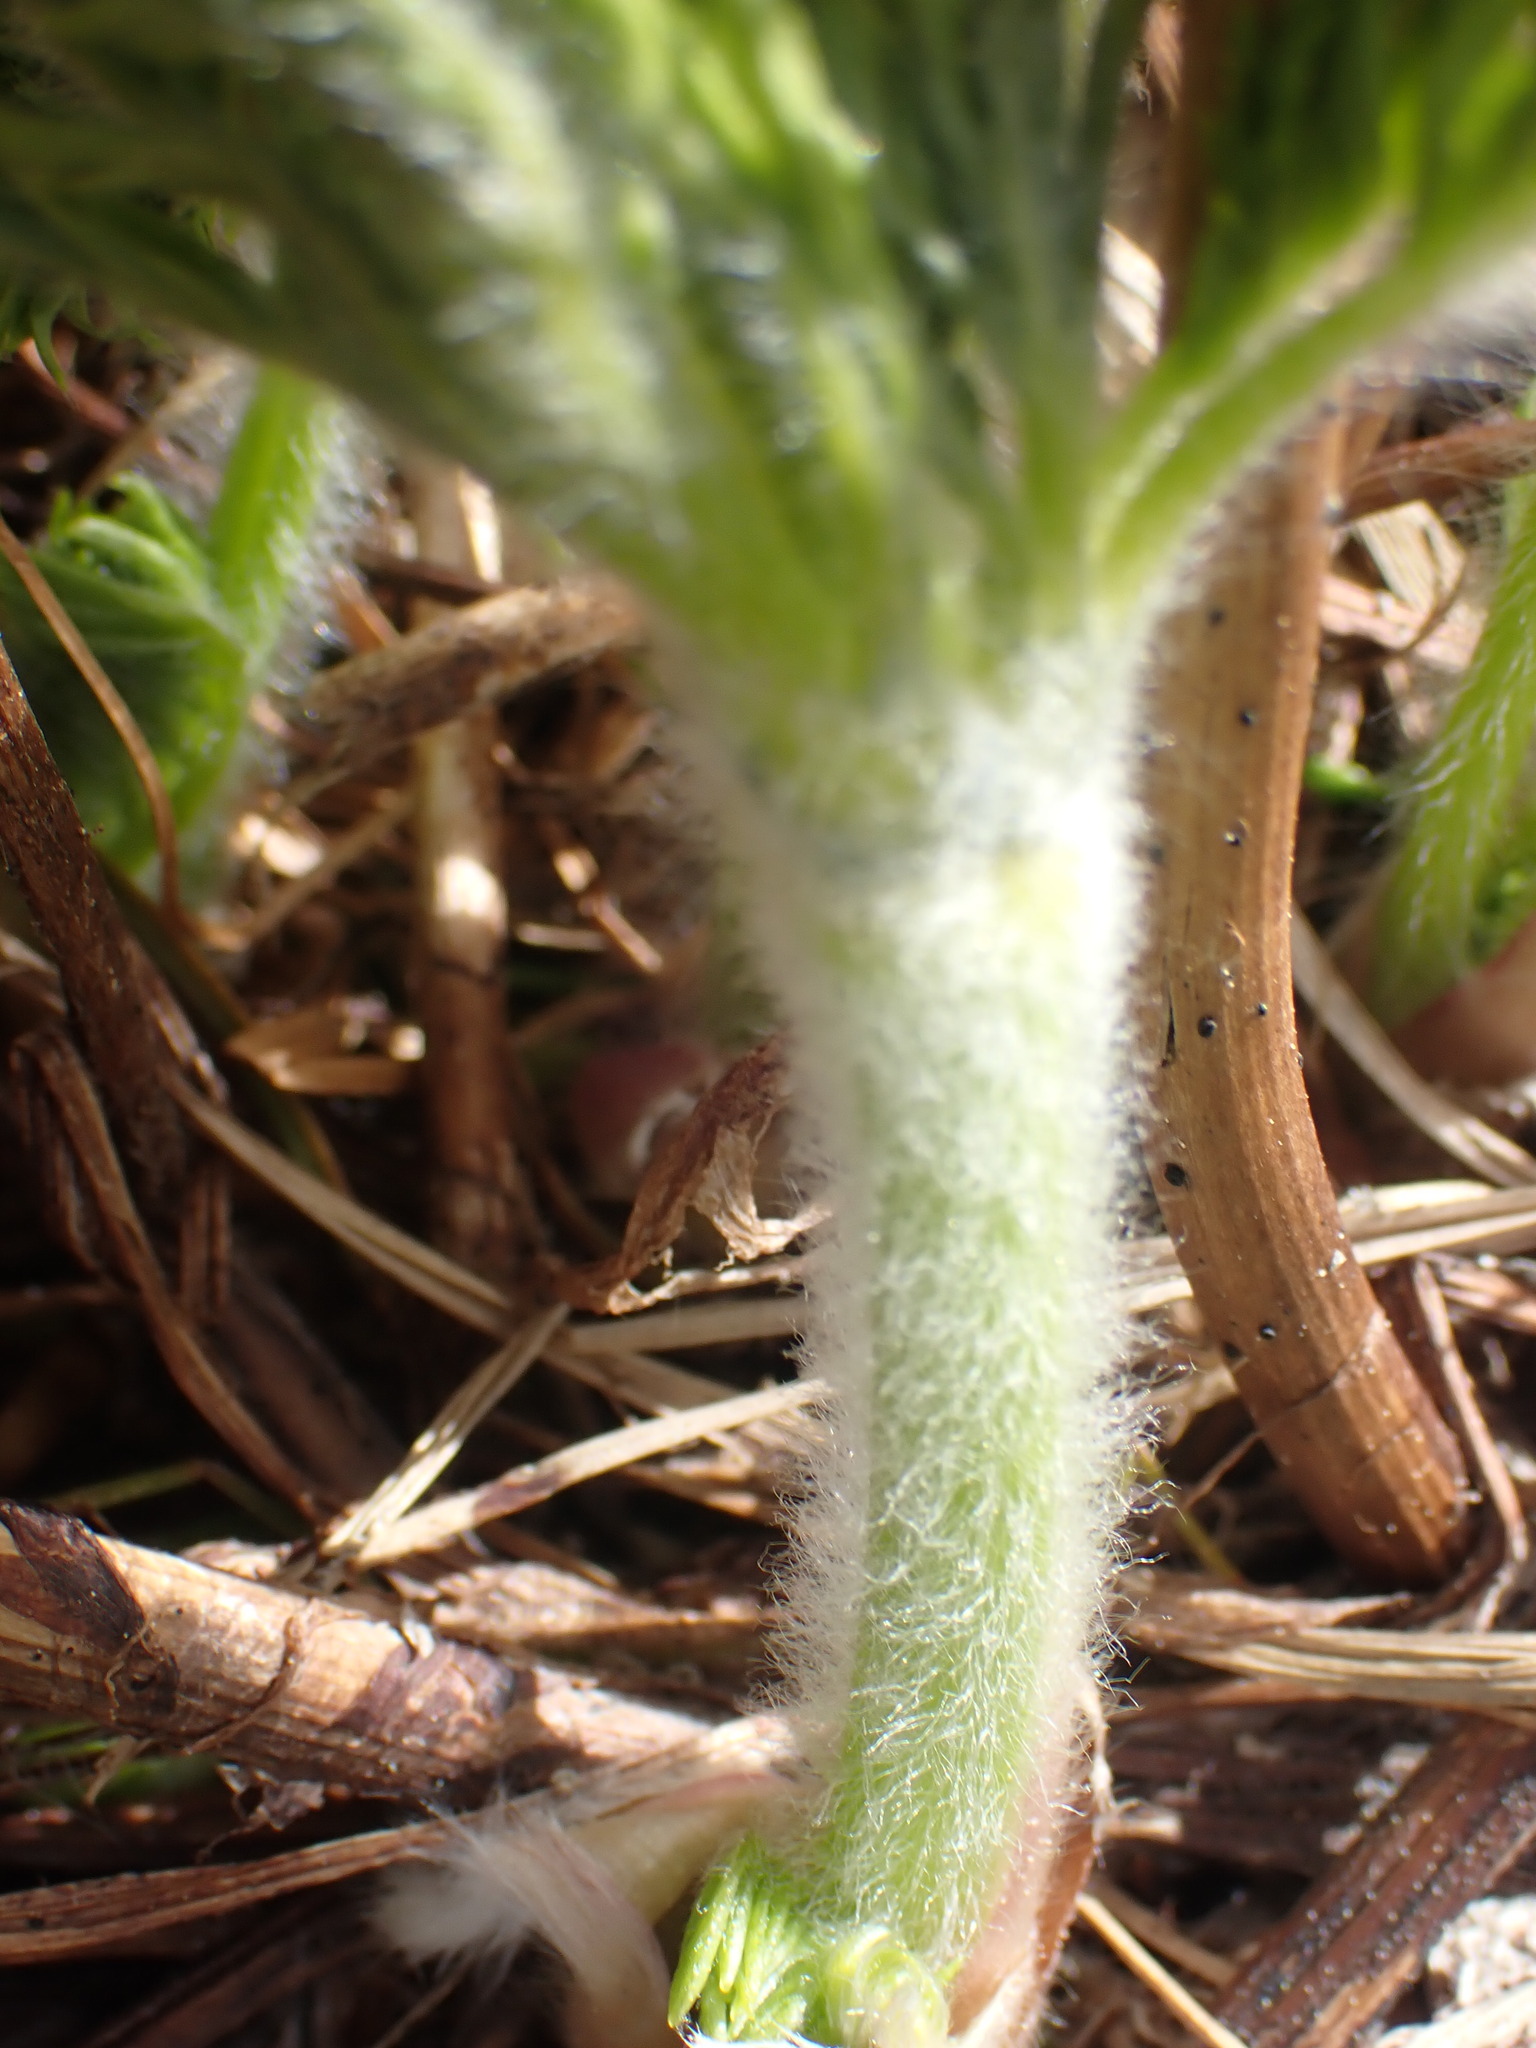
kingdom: Plantae
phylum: Tracheophyta
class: Magnoliopsida
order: Ranunculales
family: Ranunculaceae
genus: Pulsatilla
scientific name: Pulsatilla occidentalis
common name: Mountain pasqueflower
